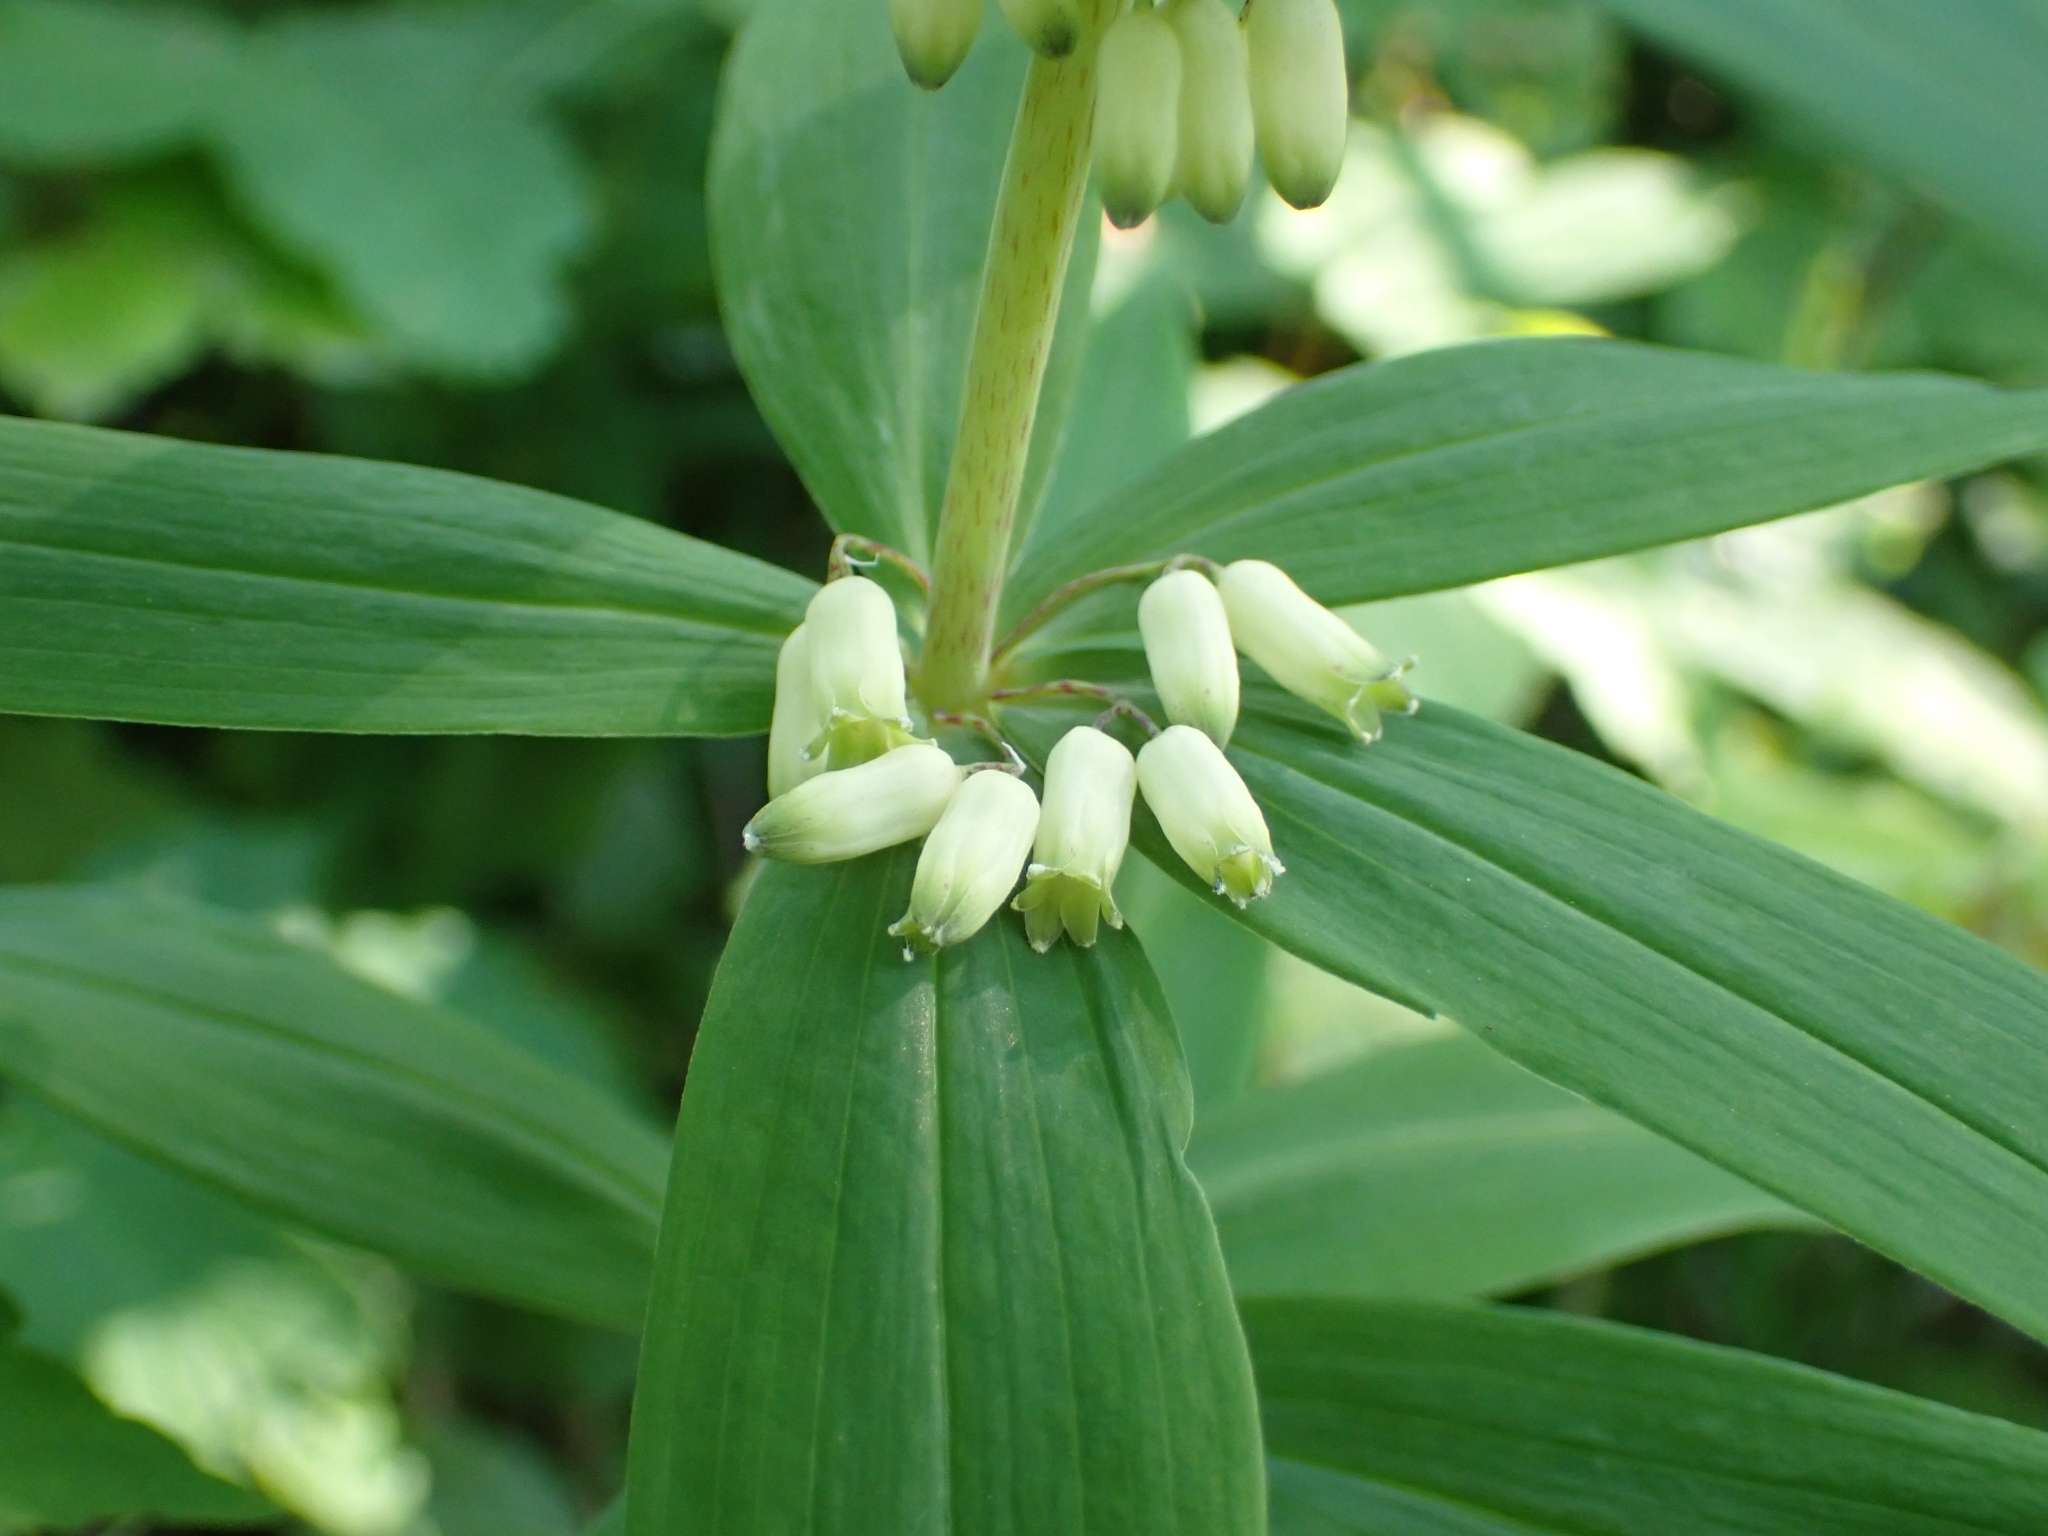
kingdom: Plantae
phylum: Tracheophyta
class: Liliopsida
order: Asparagales
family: Asparagaceae
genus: Polygonatum
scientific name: Polygonatum verticillatum
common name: Whorled solomon's-seal
